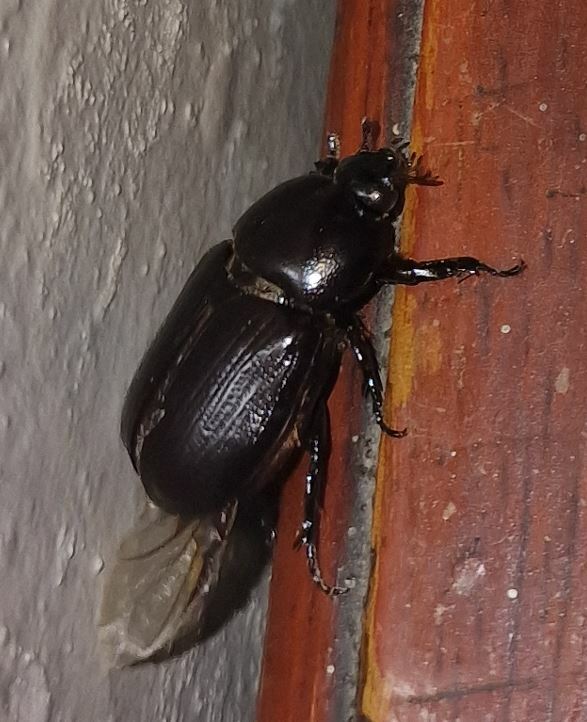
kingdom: Animalia
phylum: Arthropoda
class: Insecta
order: Coleoptera
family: Scarabaeidae
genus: Euetheola
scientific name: Euetheola humilis
